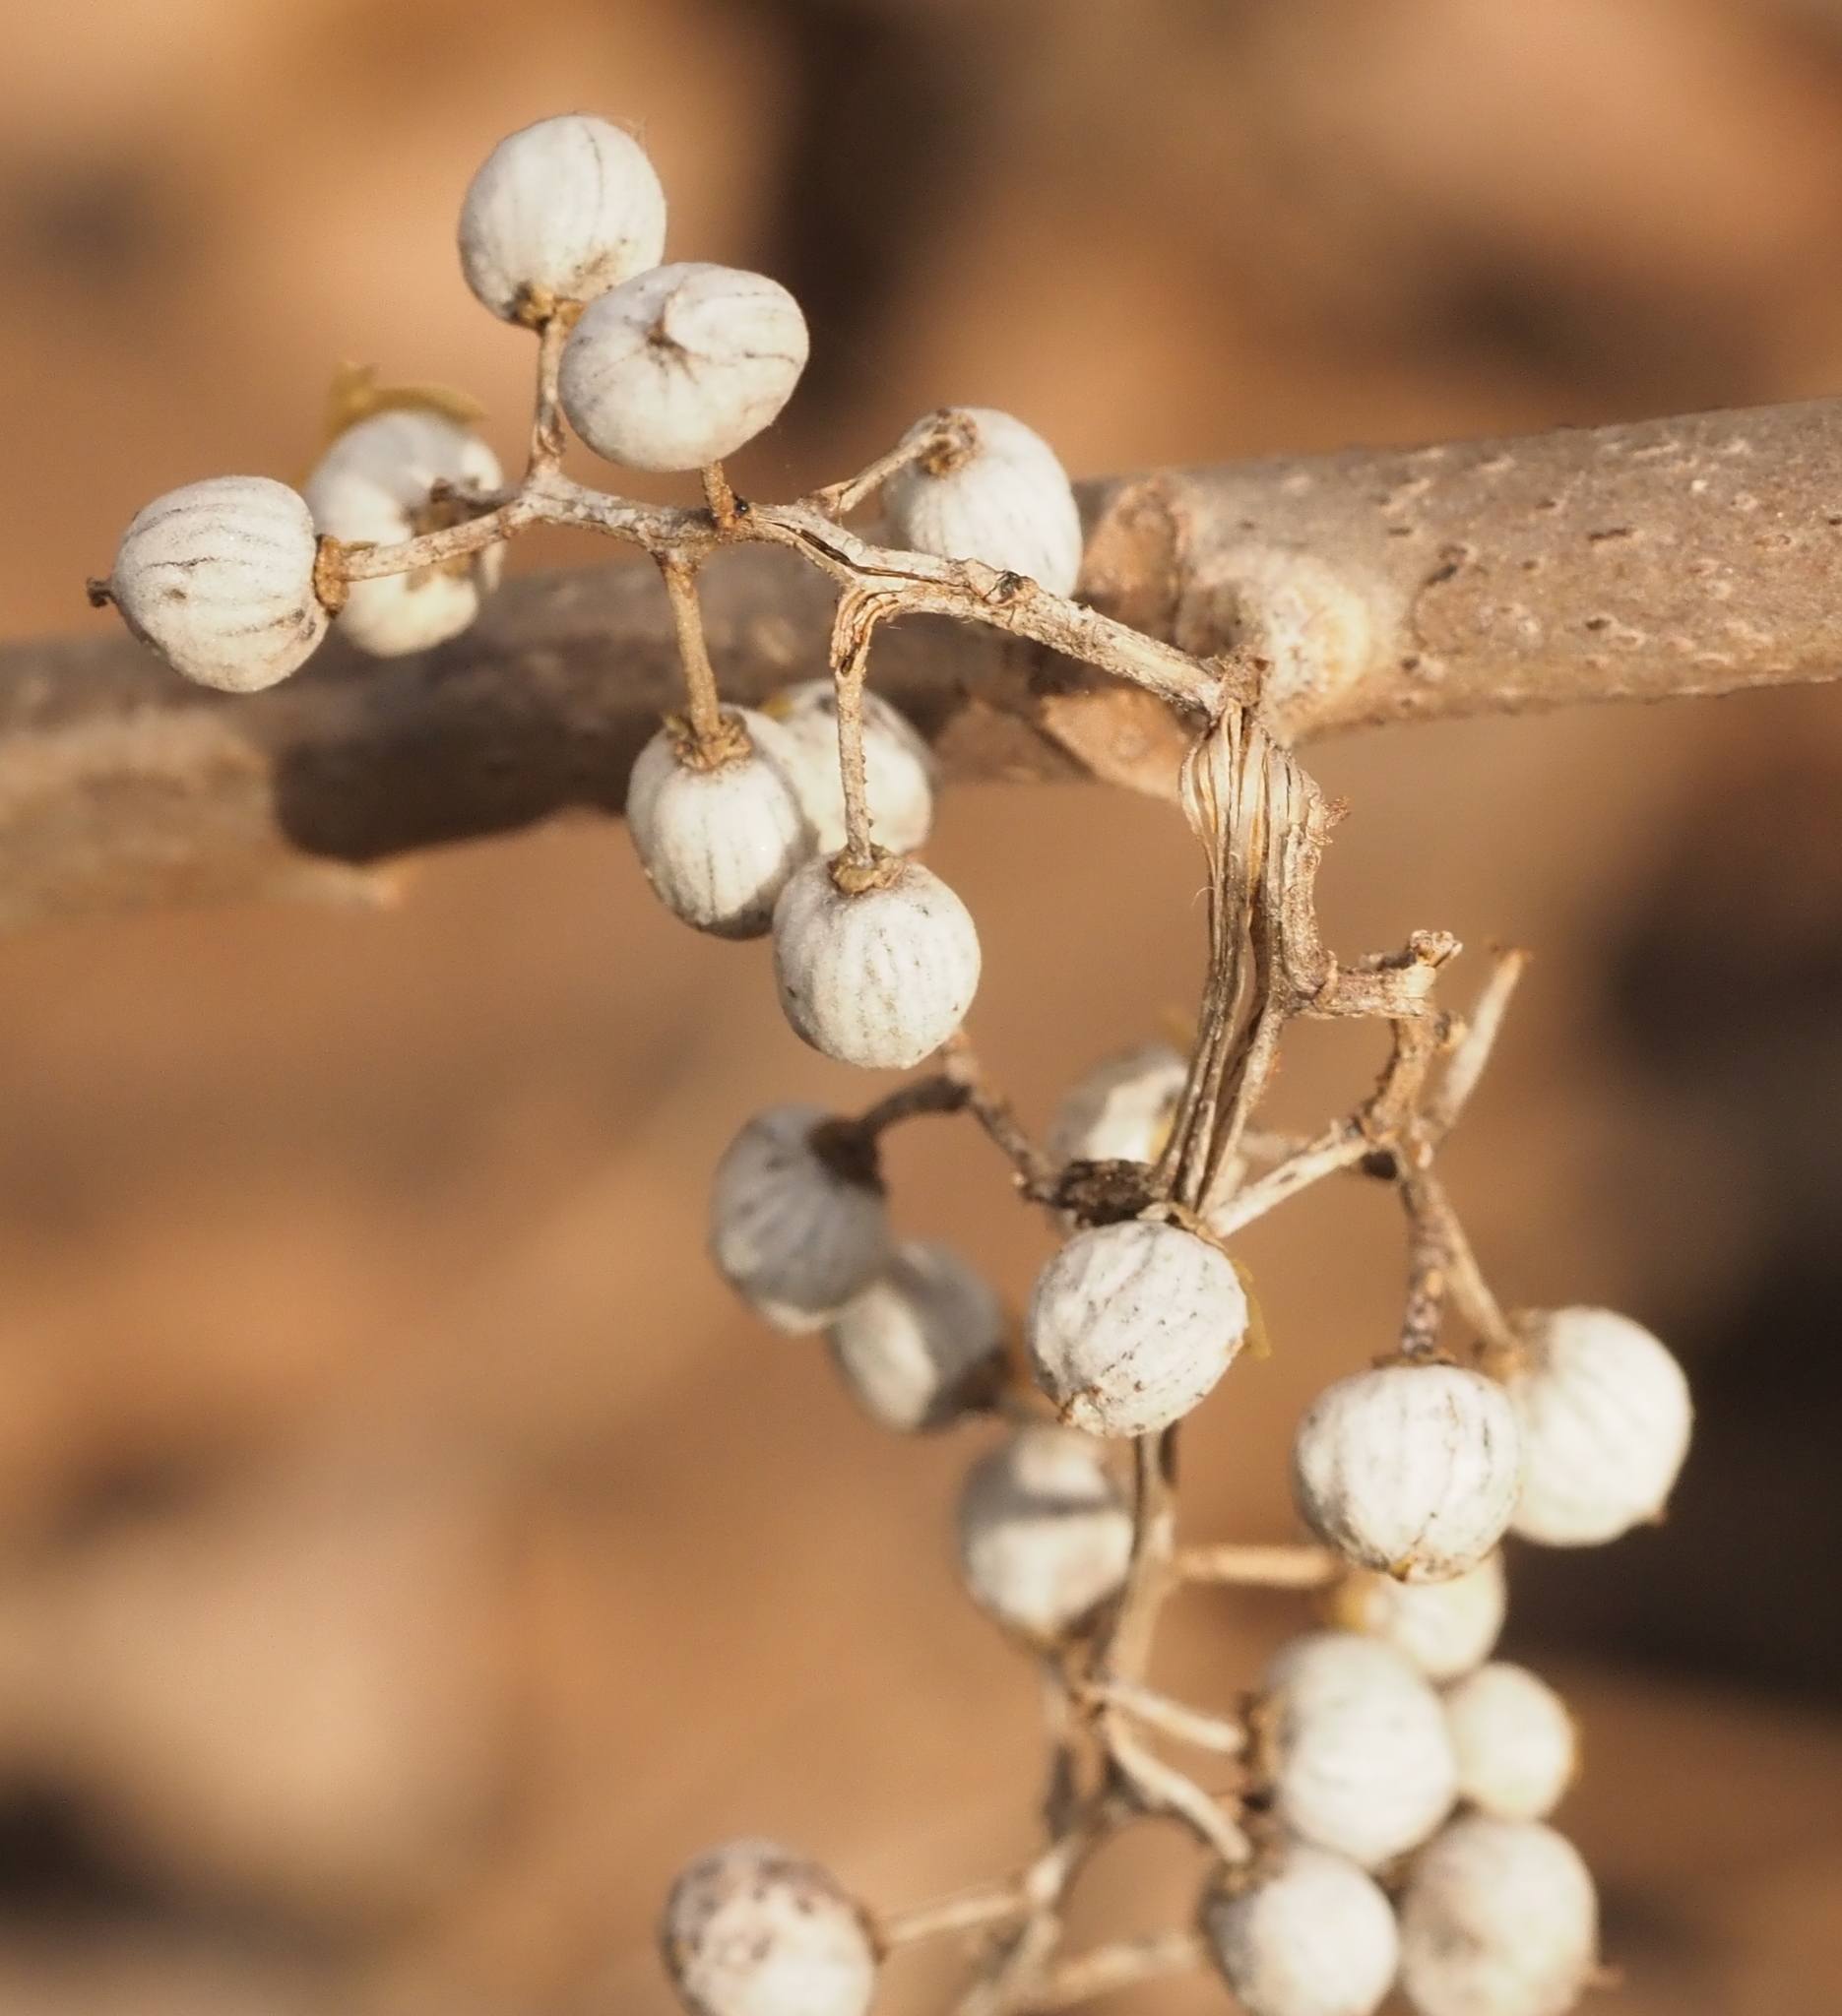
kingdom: Plantae
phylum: Tracheophyta
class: Magnoliopsida
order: Sapindales
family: Anacardiaceae
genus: Toxicodendron
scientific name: Toxicodendron radicans
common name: Poison ivy
